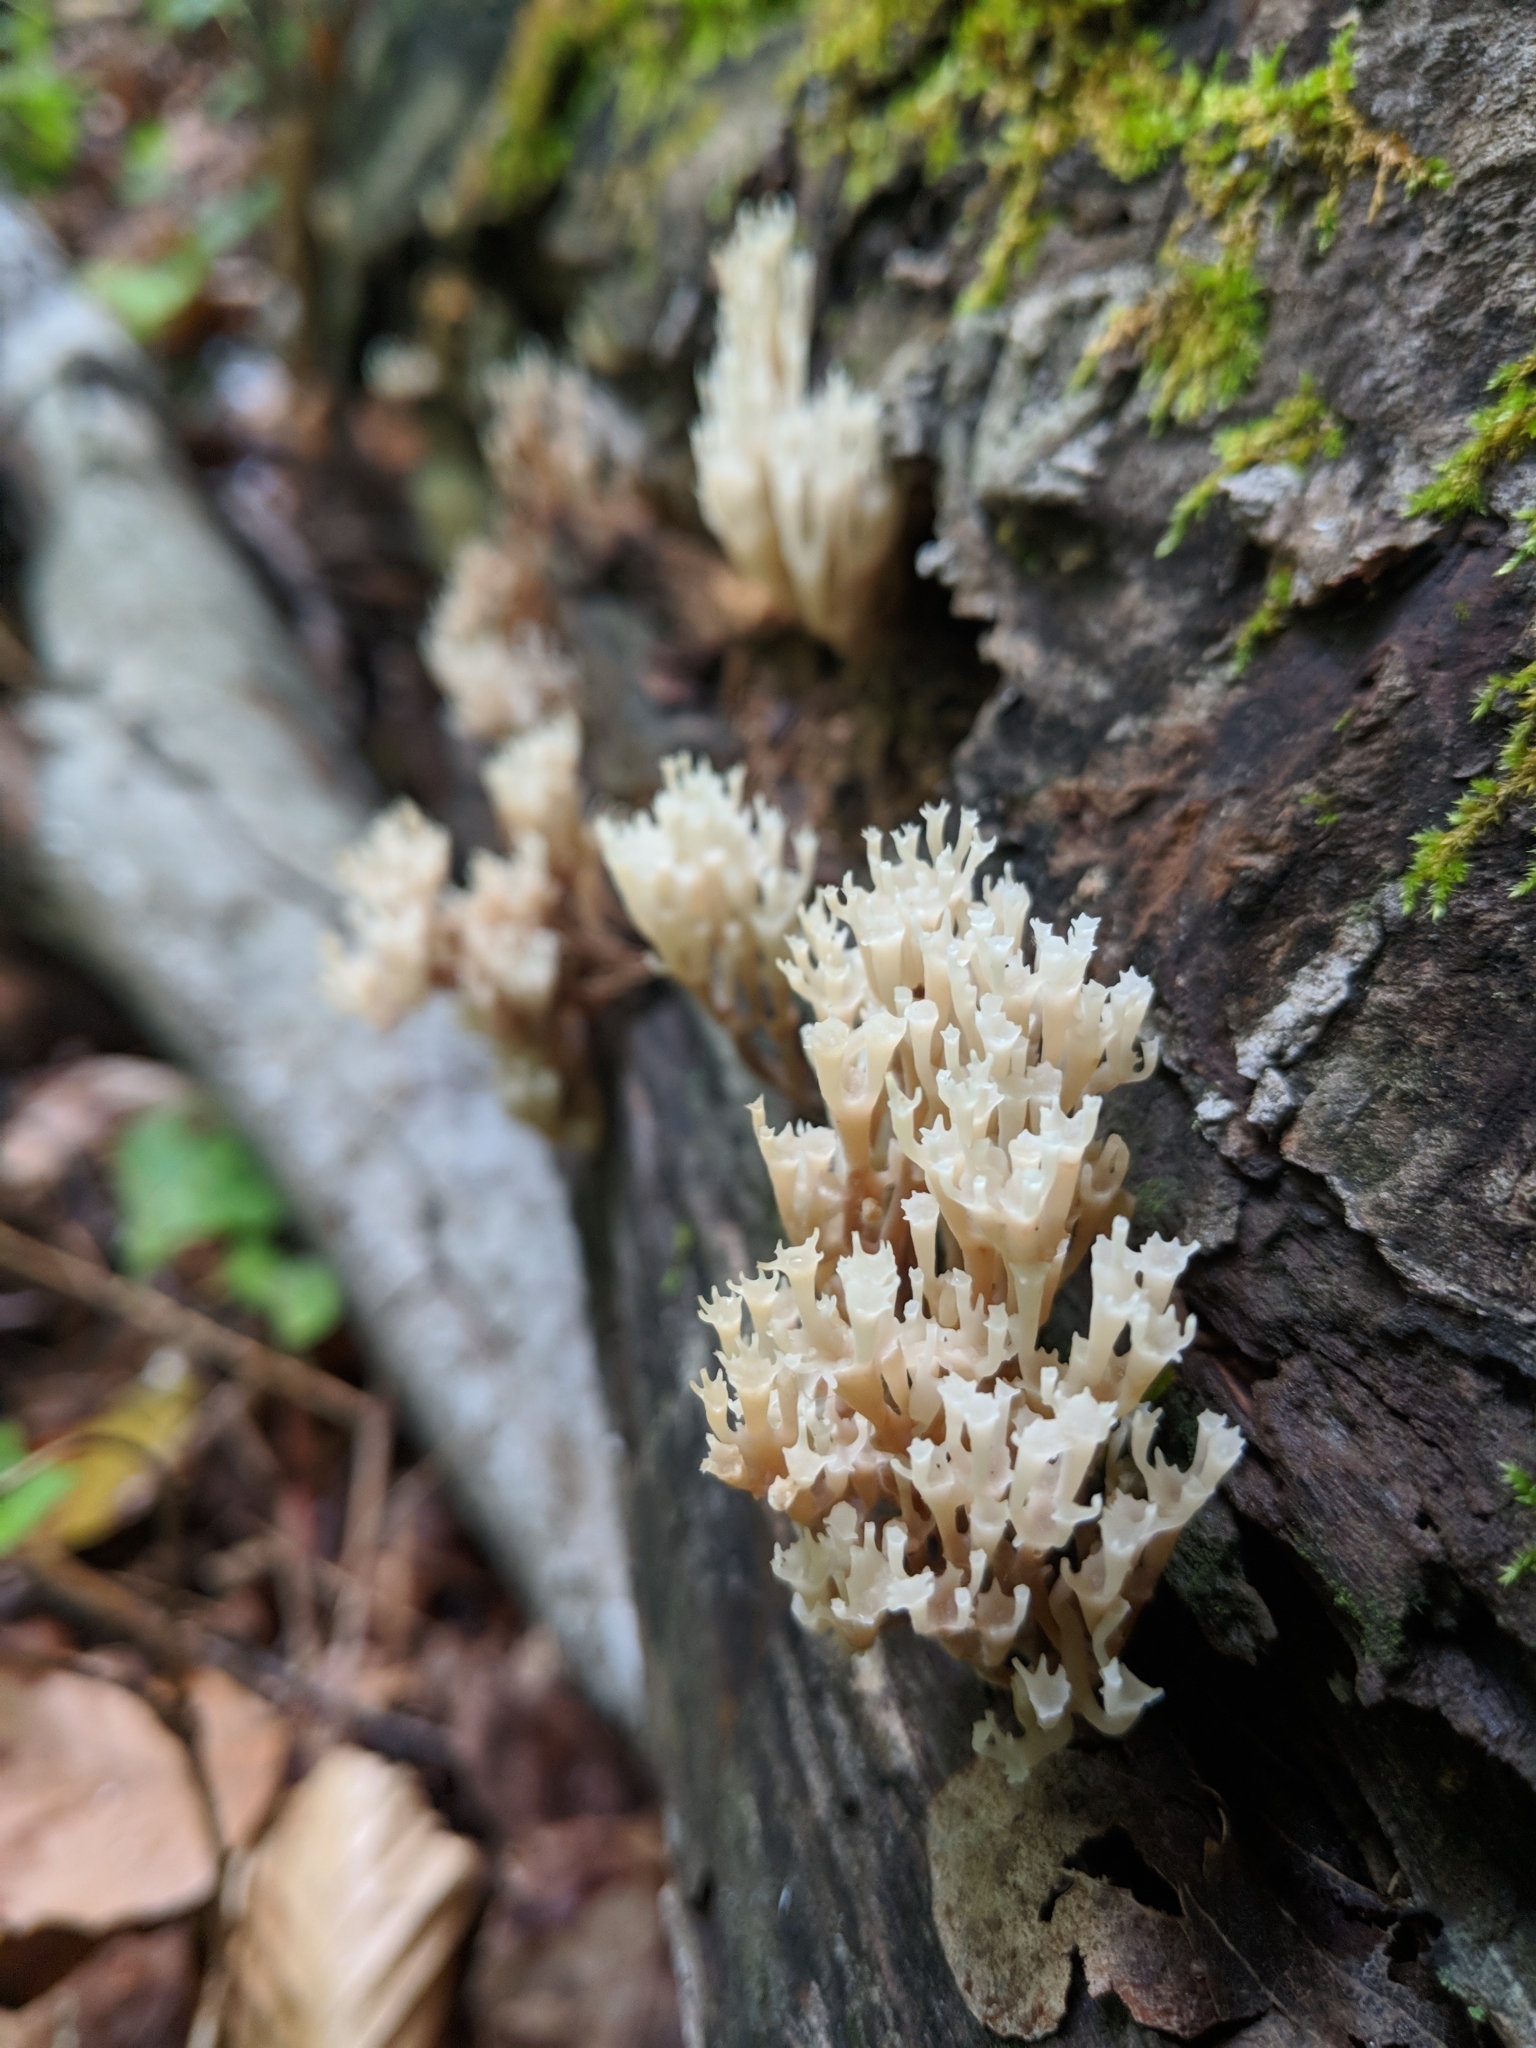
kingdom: Fungi
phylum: Basidiomycota
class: Agaricomycetes
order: Russulales
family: Auriscalpiaceae
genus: Artomyces
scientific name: Artomyces pyxidatus
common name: Crown-tipped coral fungus
